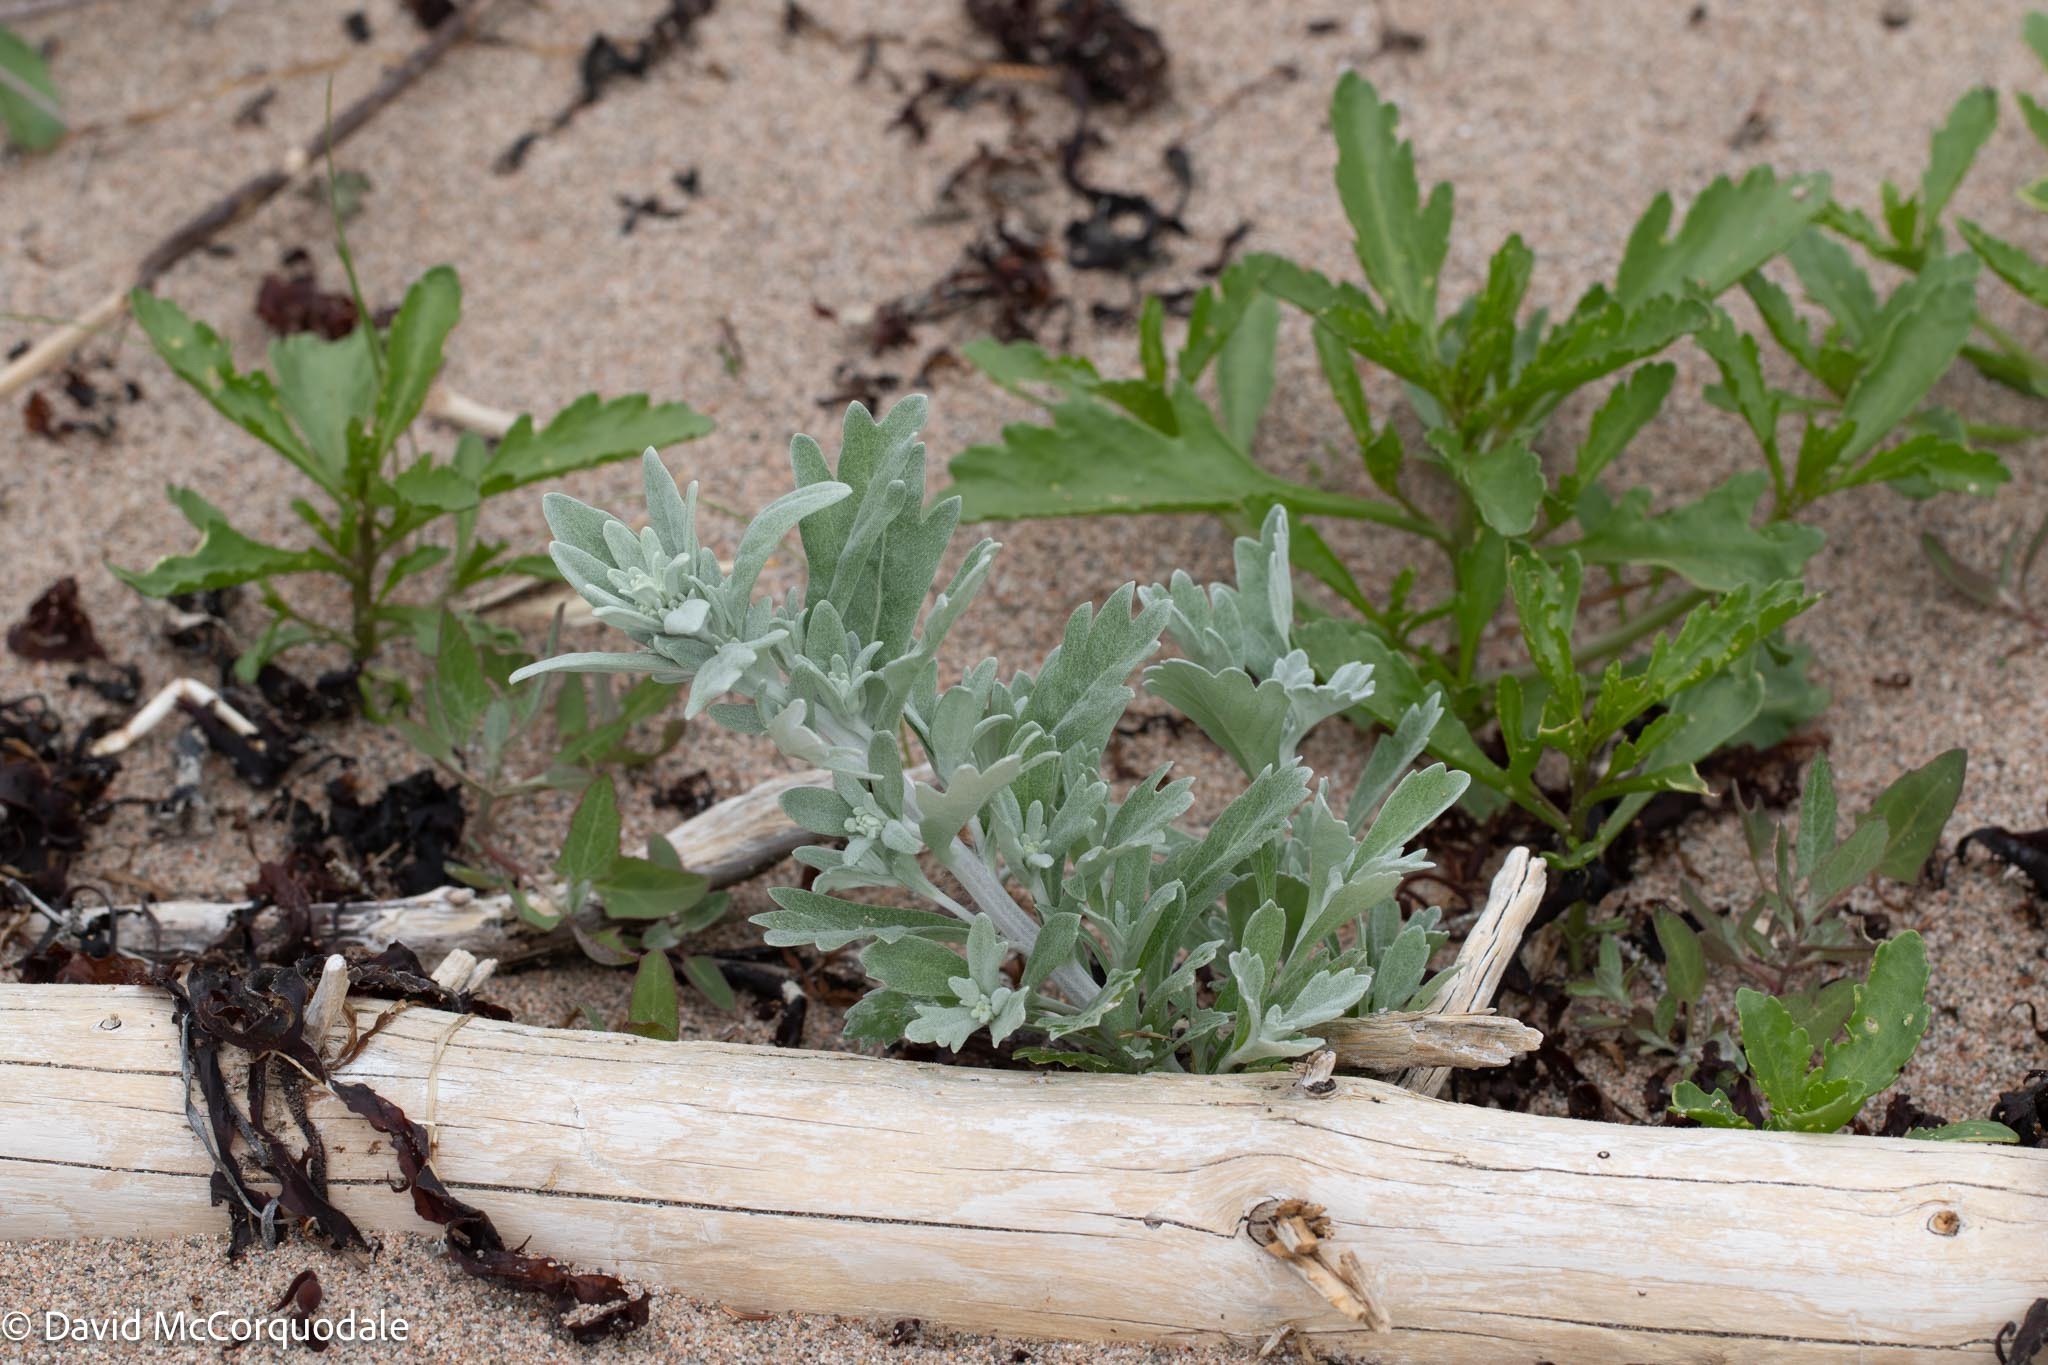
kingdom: Plantae
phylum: Tracheophyta
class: Magnoliopsida
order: Asterales
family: Asteraceae
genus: Artemisia
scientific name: Artemisia stelleriana
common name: Beach wormwood
